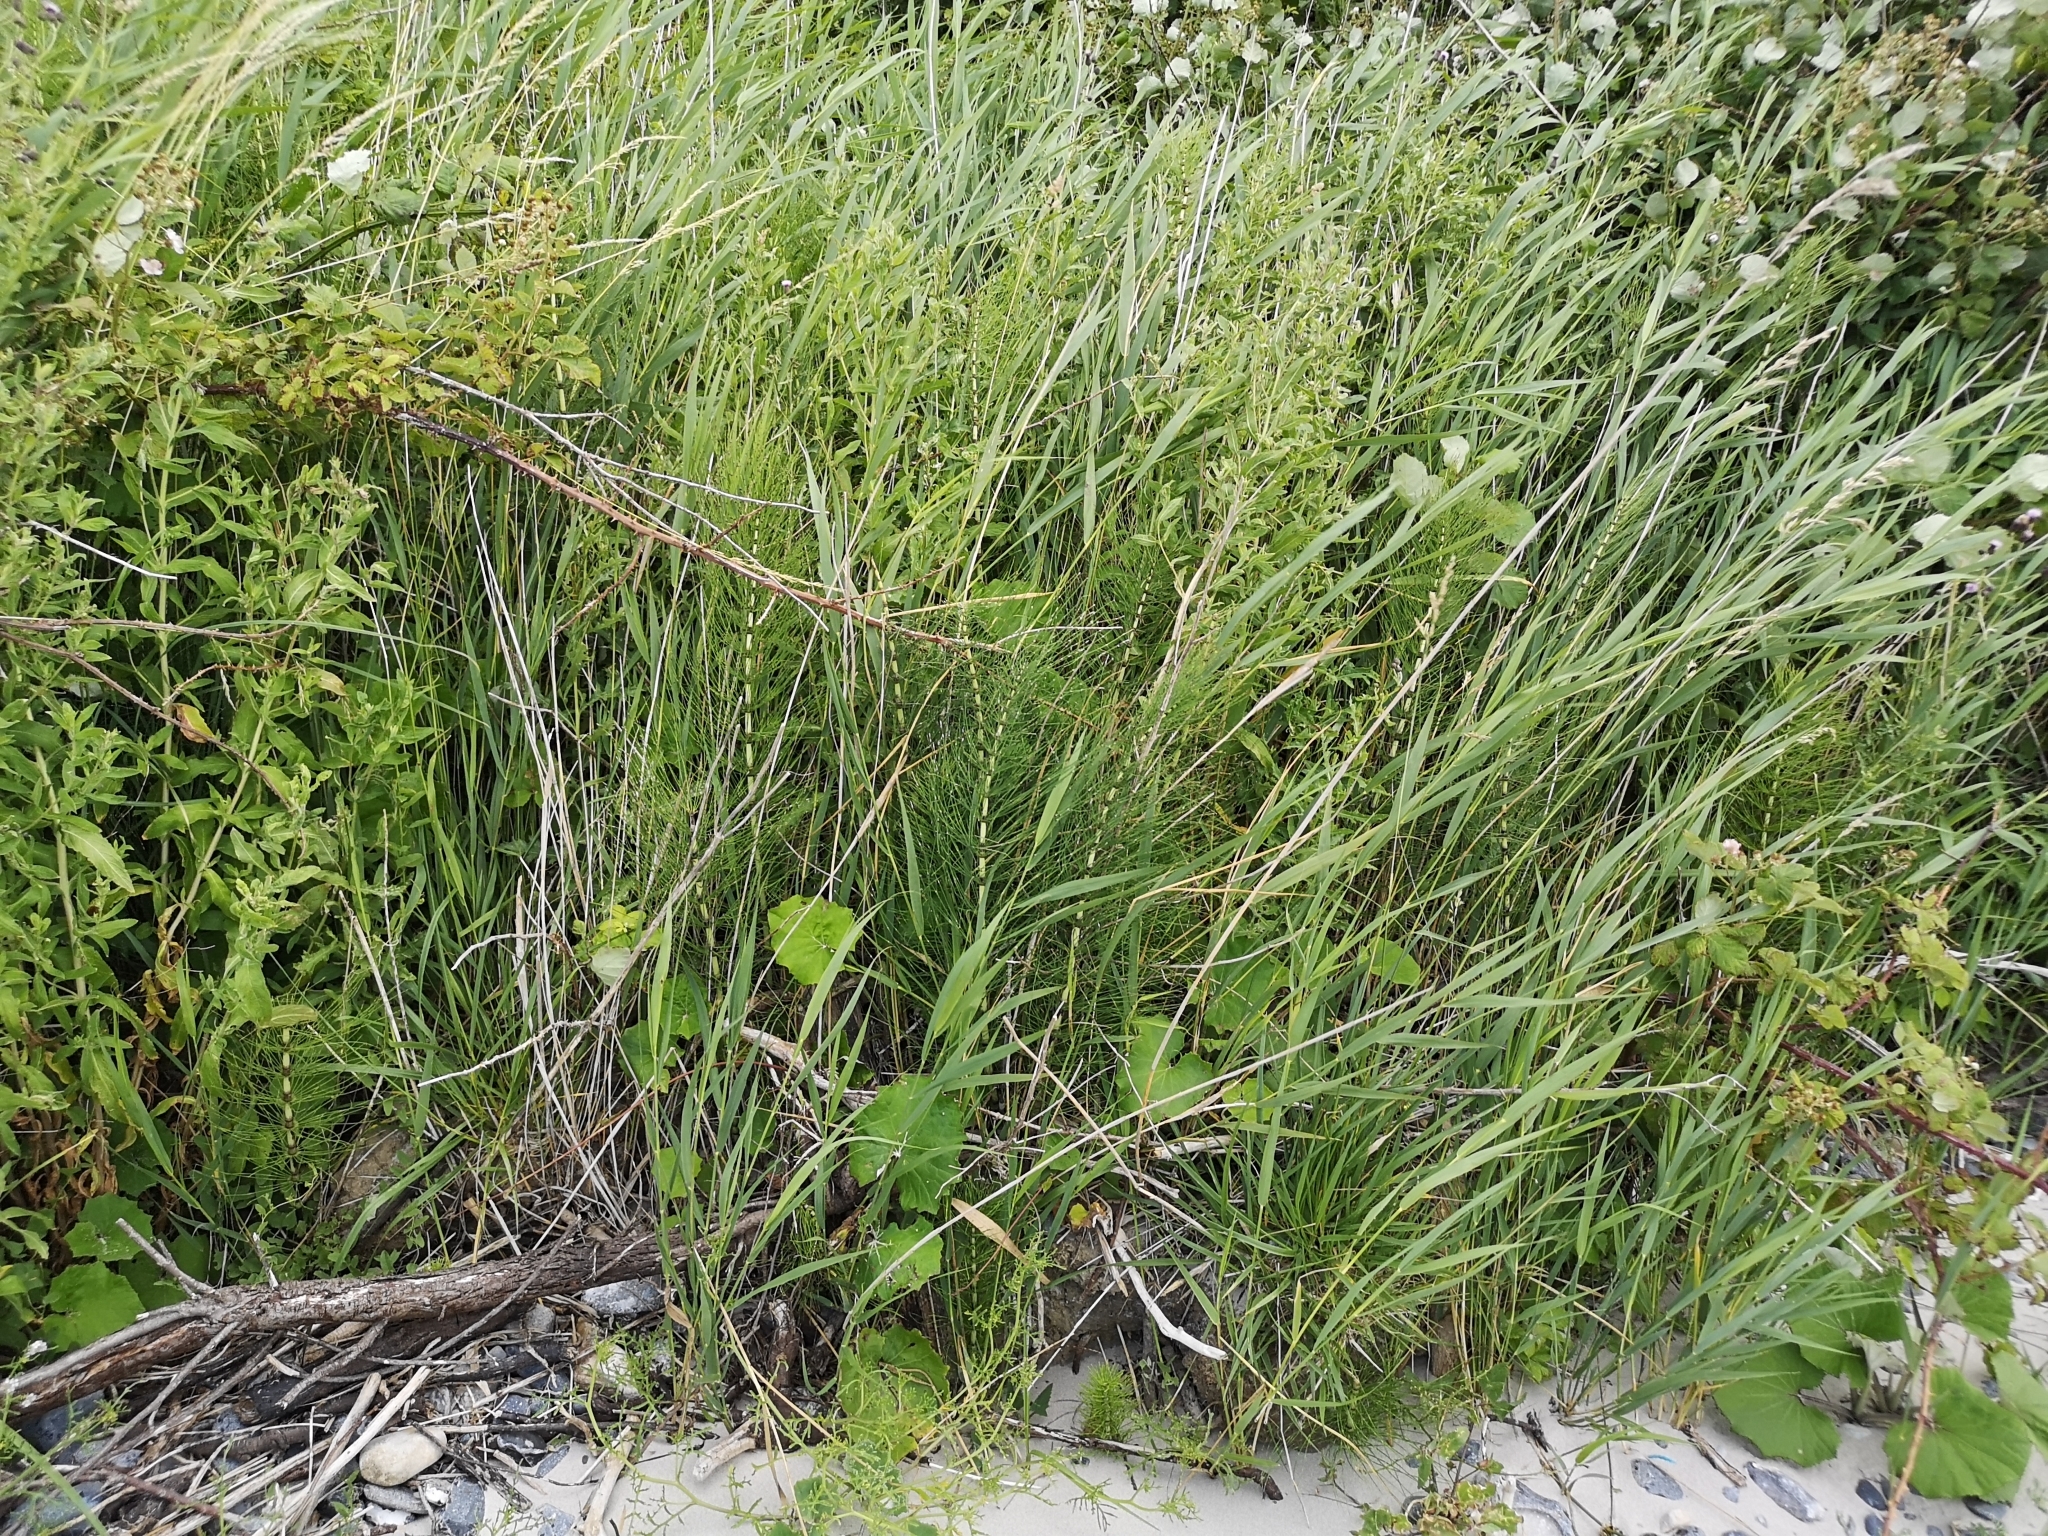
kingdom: Plantae
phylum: Tracheophyta
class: Polypodiopsida
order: Equisetales
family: Equisetaceae
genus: Equisetum
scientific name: Equisetum telmateia
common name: Great horsetail
